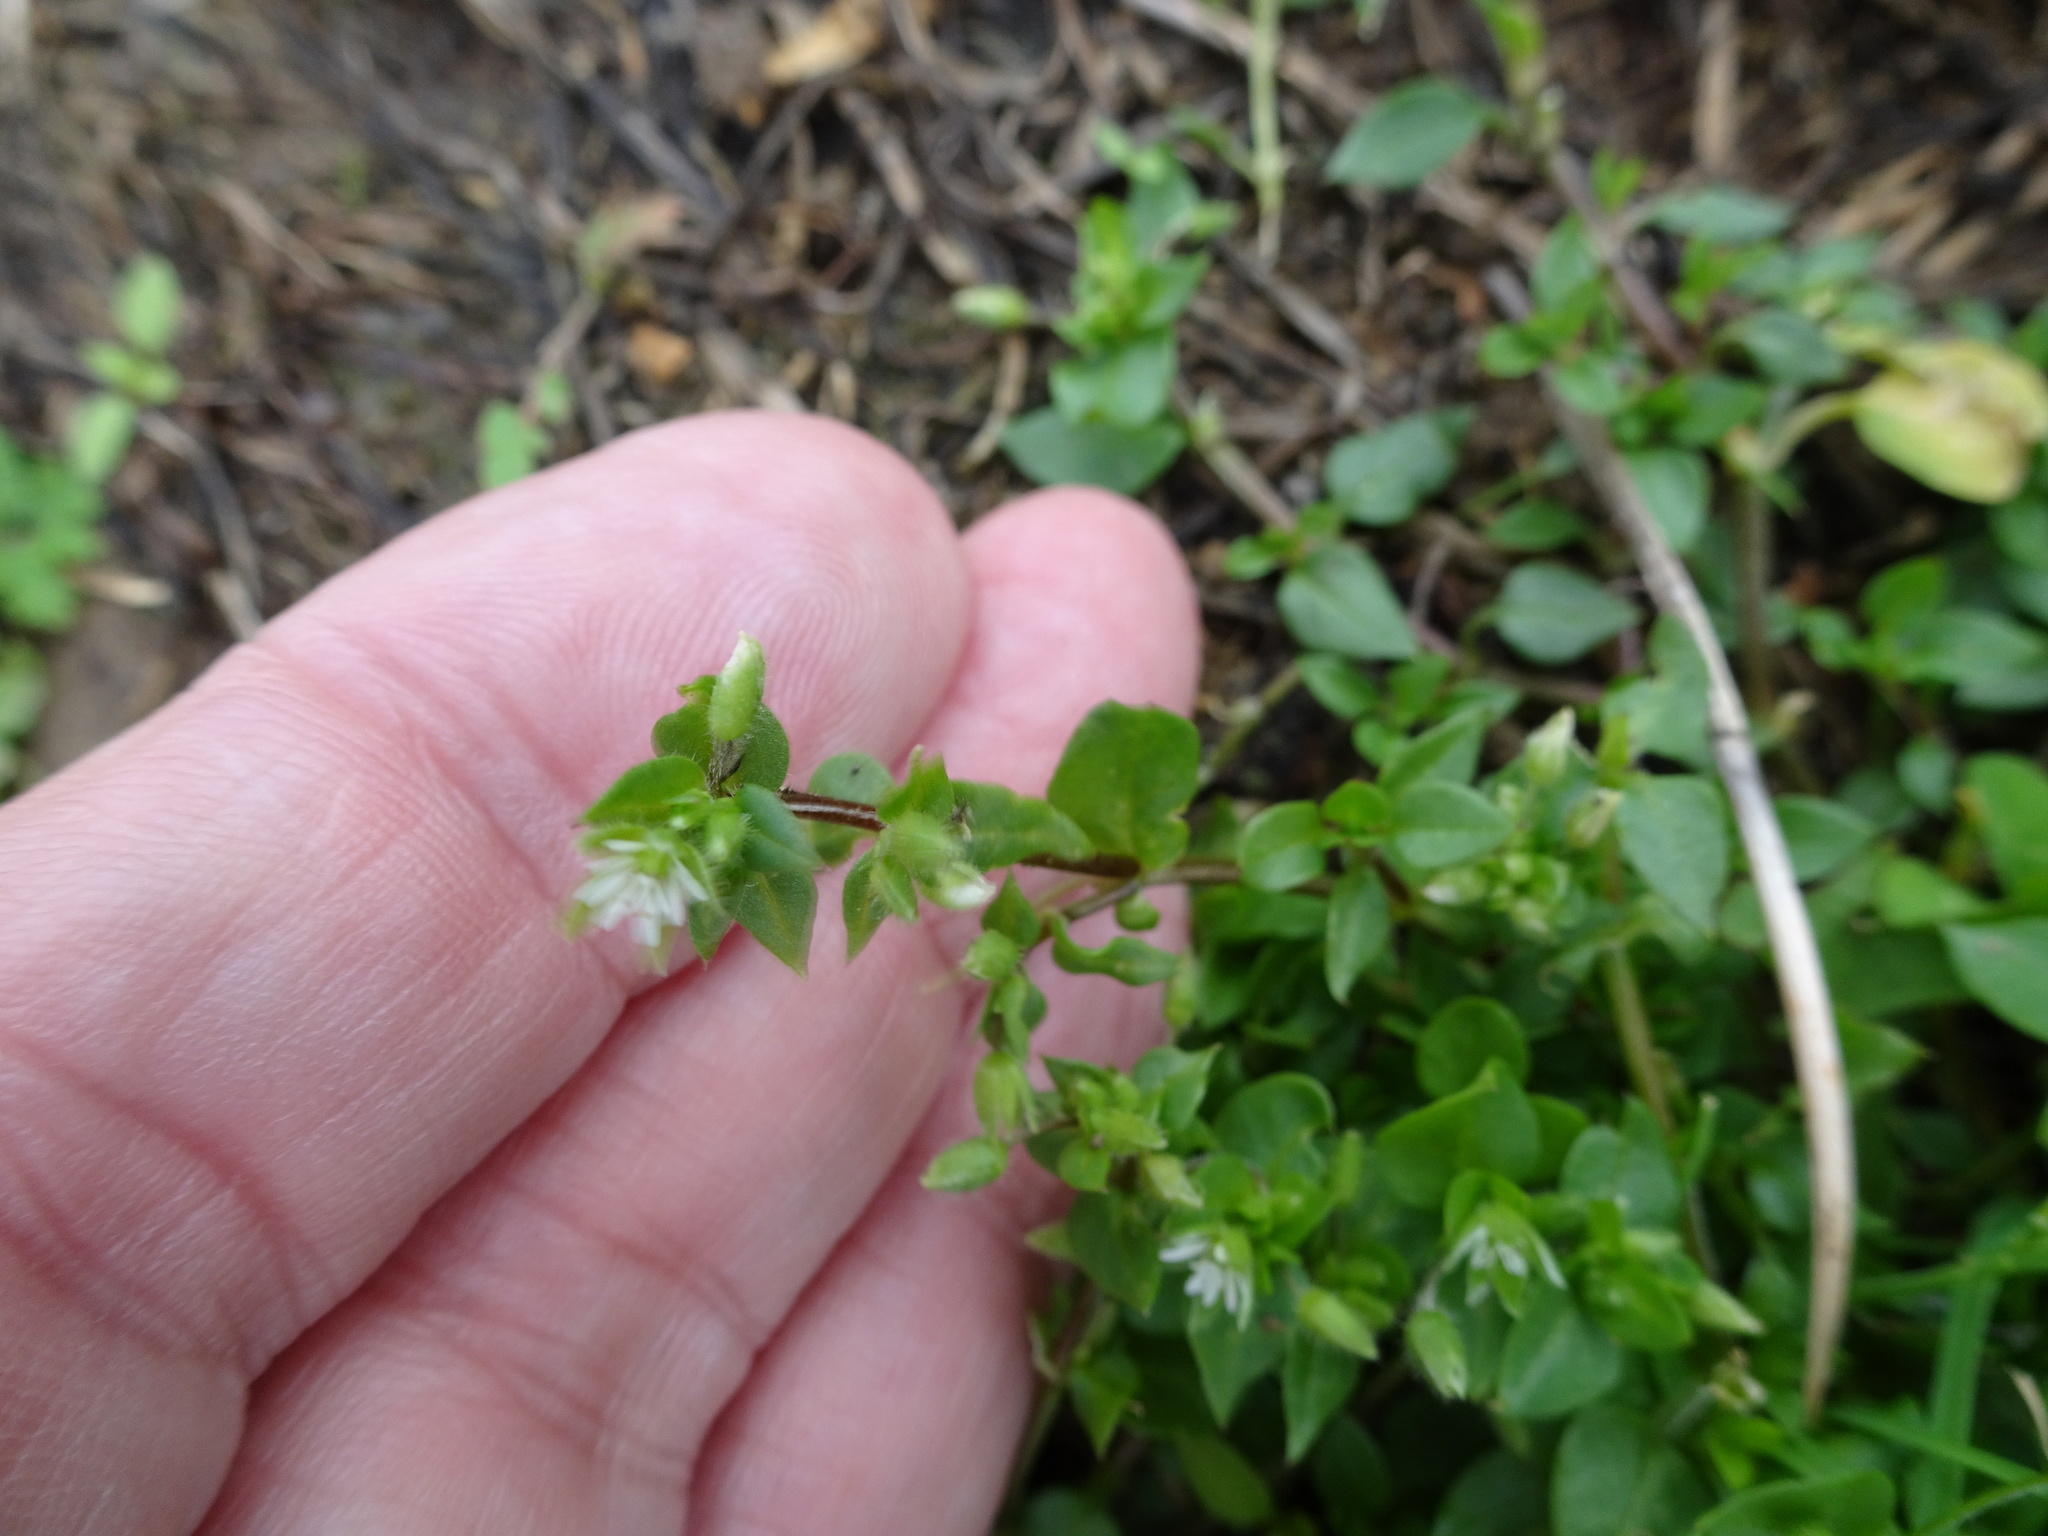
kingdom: Plantae
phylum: Tracheophyta
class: Magnoliopsida
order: Caryophyllales
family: Caryophyllaceae
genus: Stellaria
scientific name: Stellaria media
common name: Common chickweed
